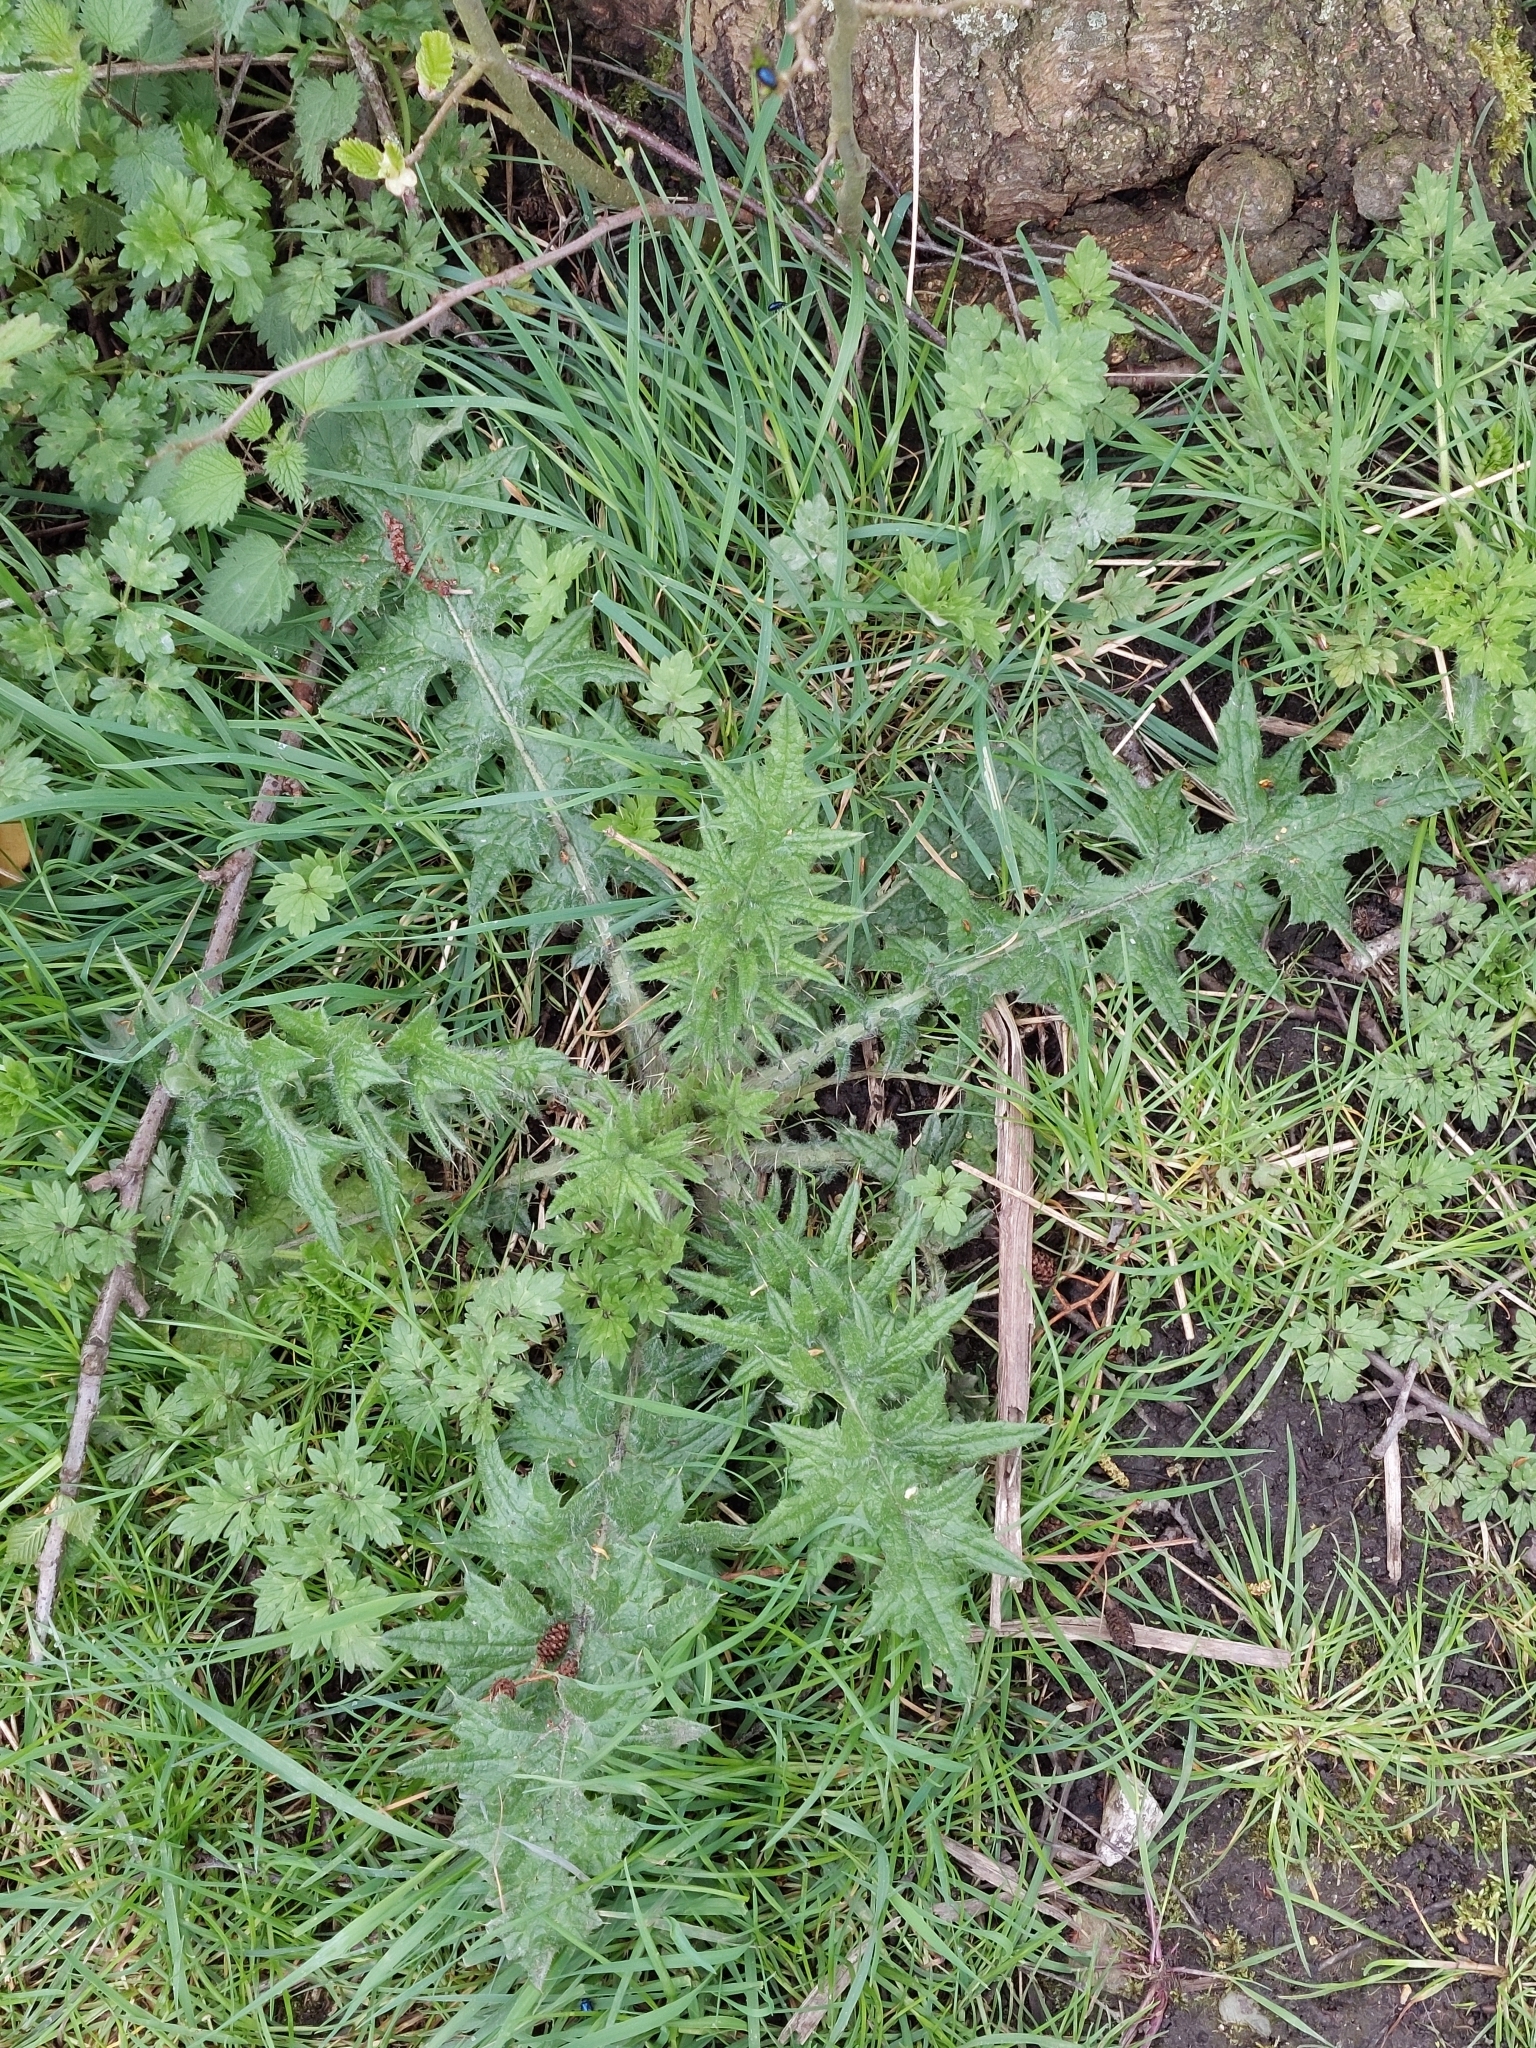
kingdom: Plantae
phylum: Tracheophyta
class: Magnoliopsida
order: Asterales
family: Asteraceae
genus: Cirsium
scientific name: Cirsium vulgare
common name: Bull thistle
